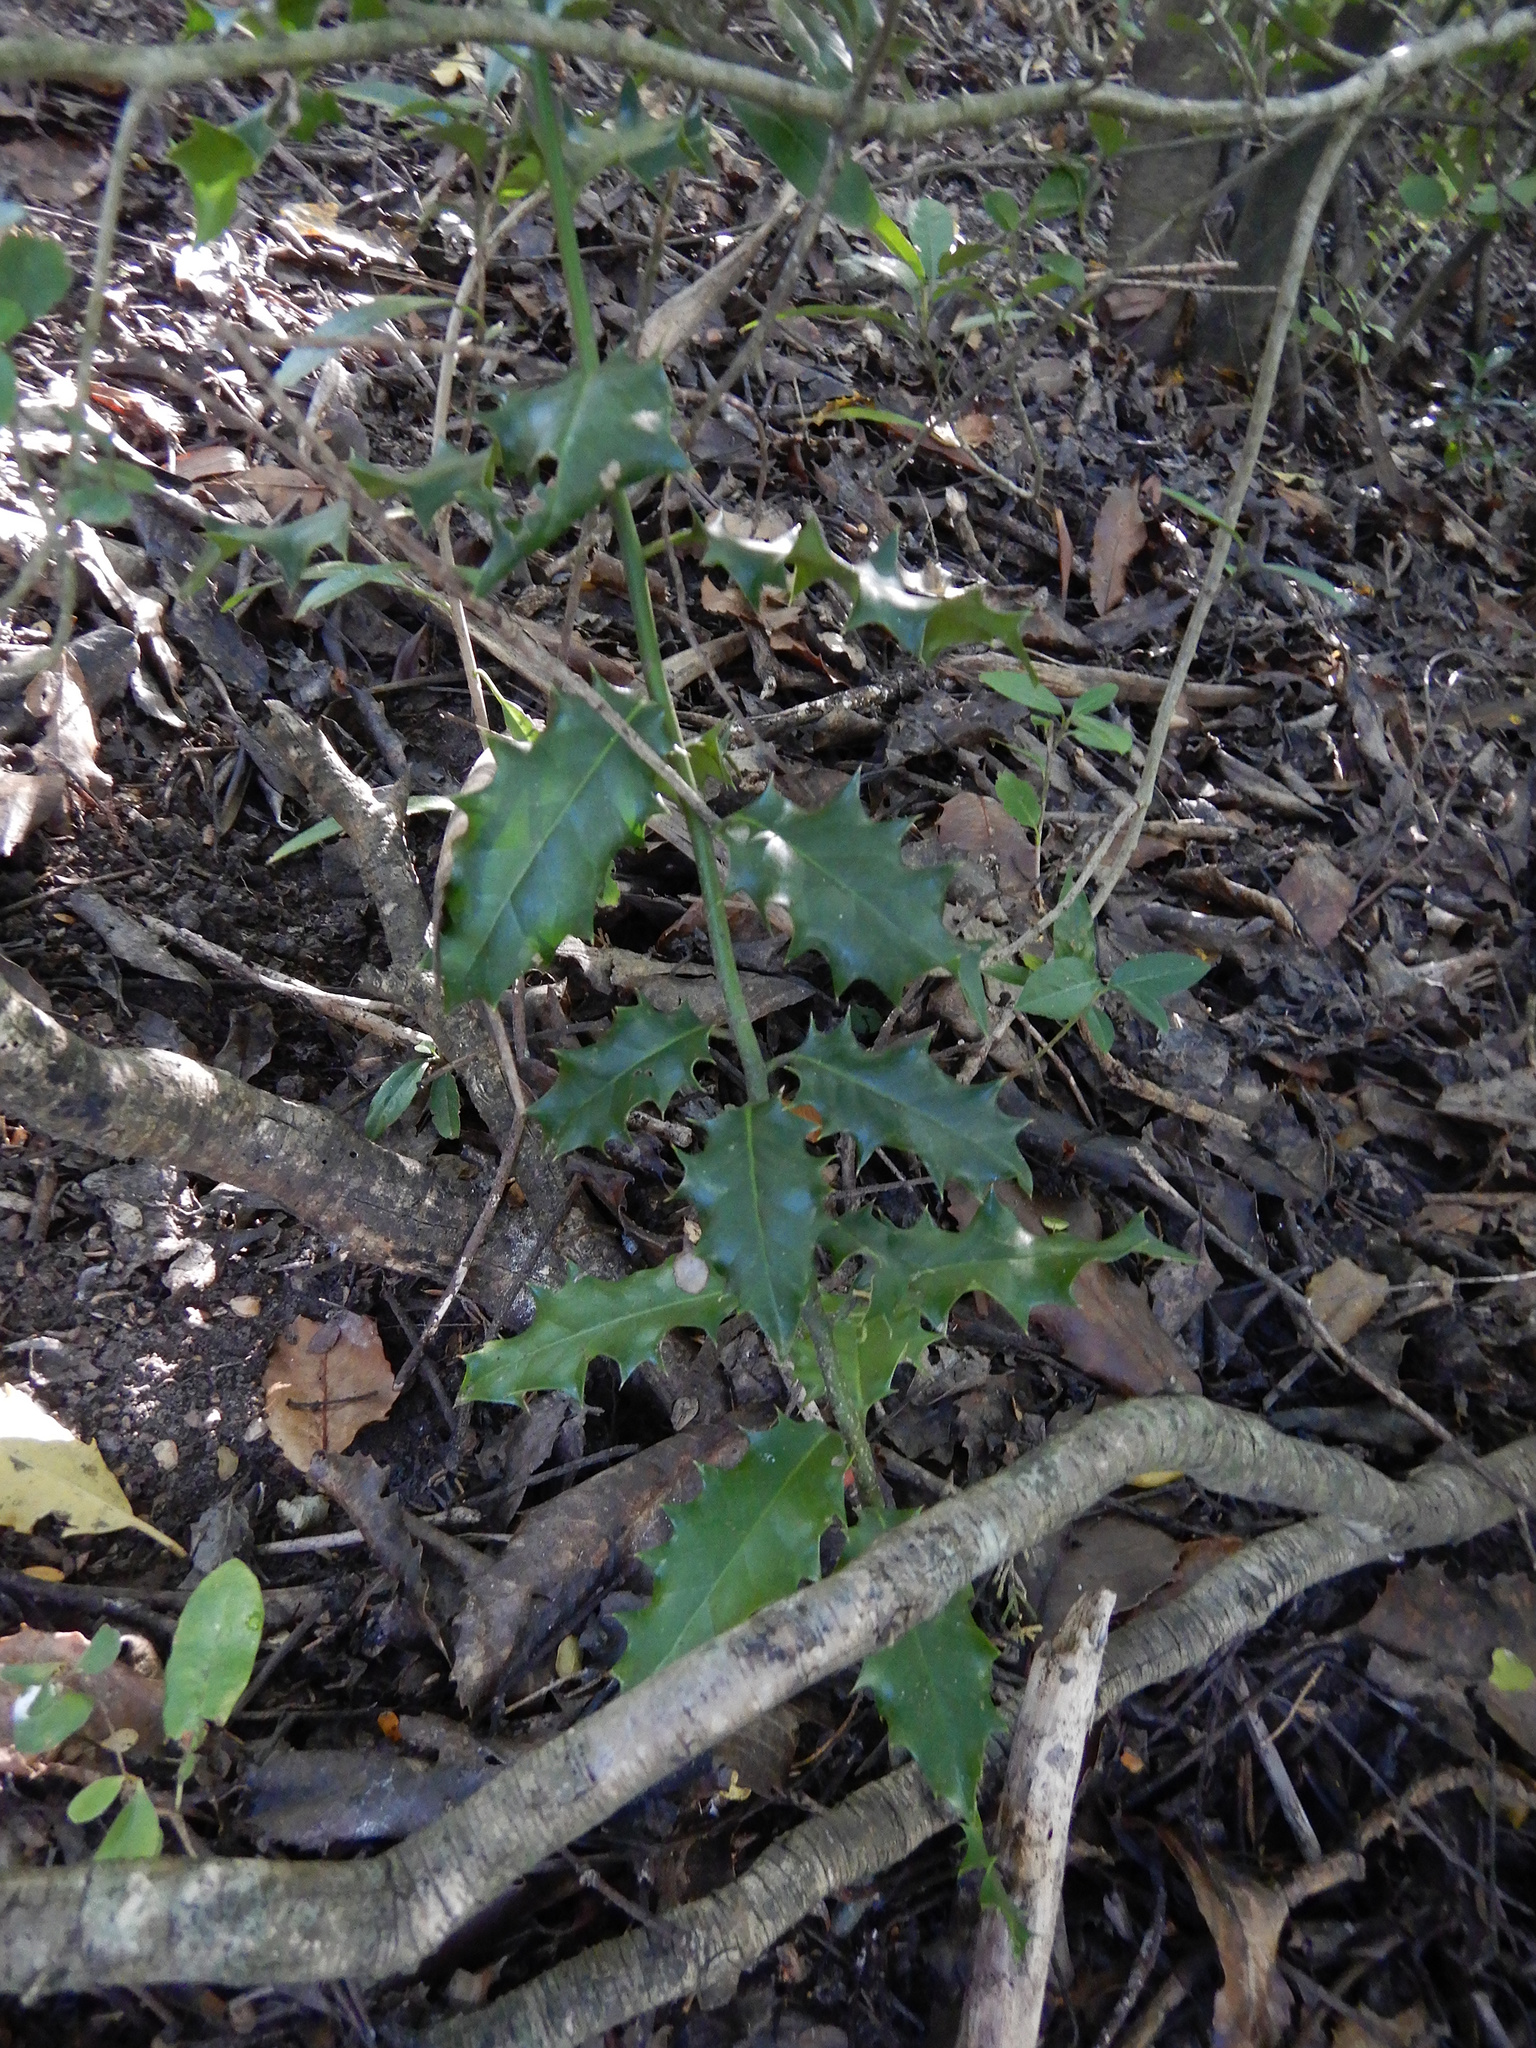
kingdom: Plantae
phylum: Tracheophyta
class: Magnoliopsida
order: Aquifoliales
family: Aquifoliaceae
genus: Ilex
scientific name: Ilex aquifolium
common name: English holly
